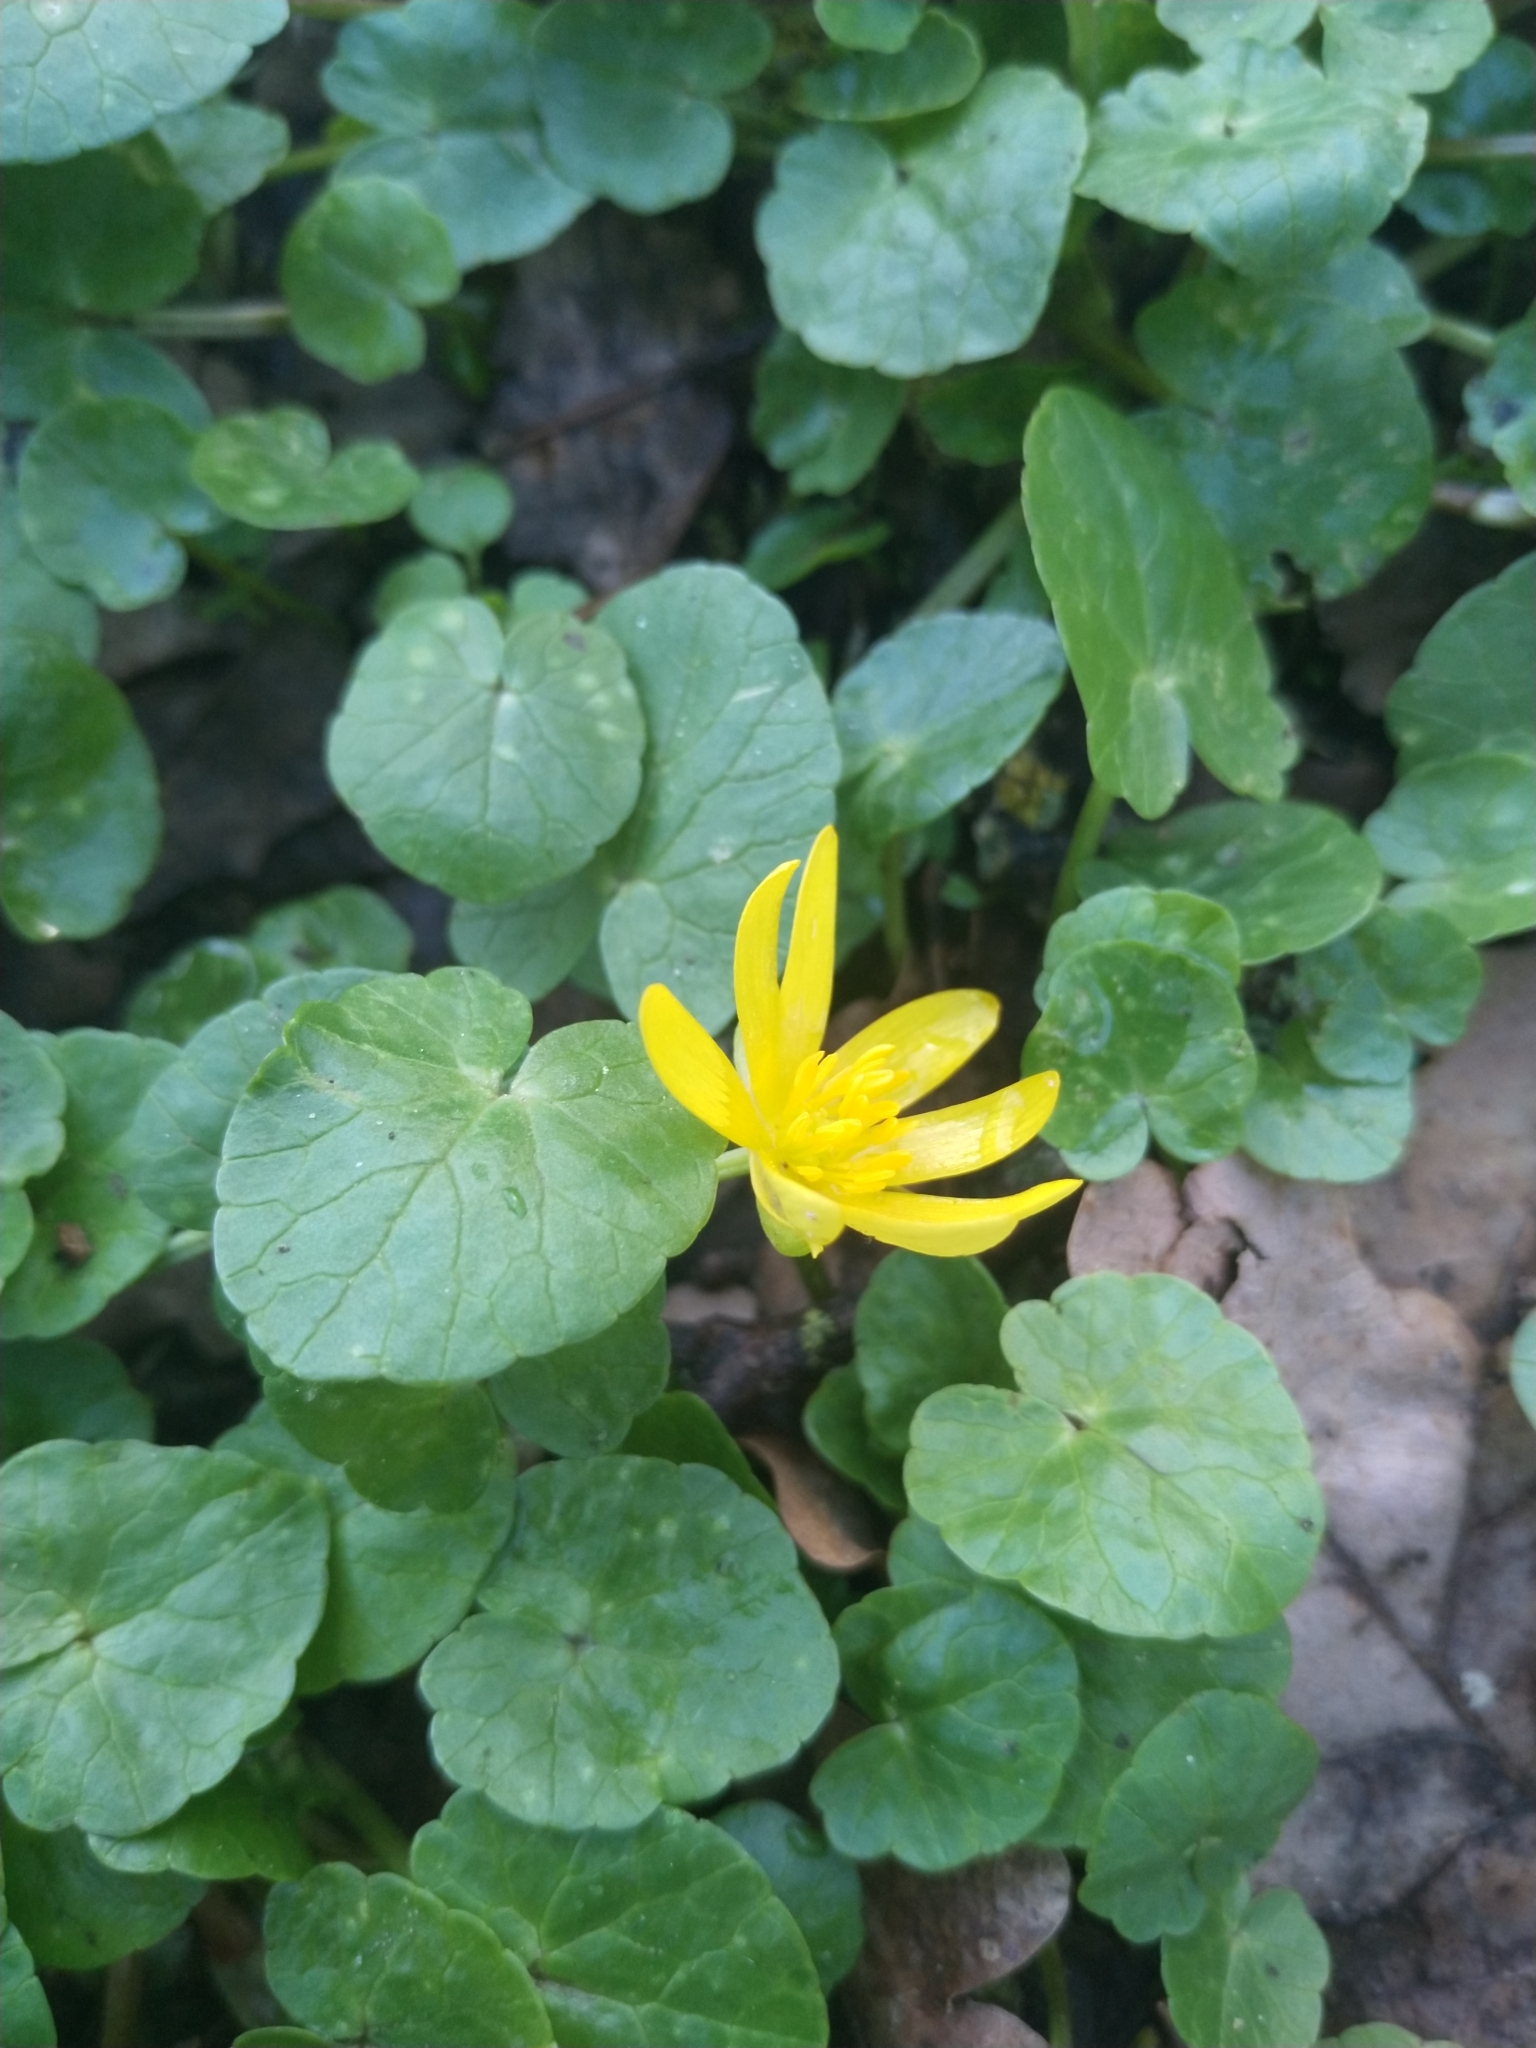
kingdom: Plantae
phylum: Tracheophyta
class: Magnoliopsida
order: Ranunculales
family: Ranunculaceae
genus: Ficaria
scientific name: Ficaria verna
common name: Lesser celandine
